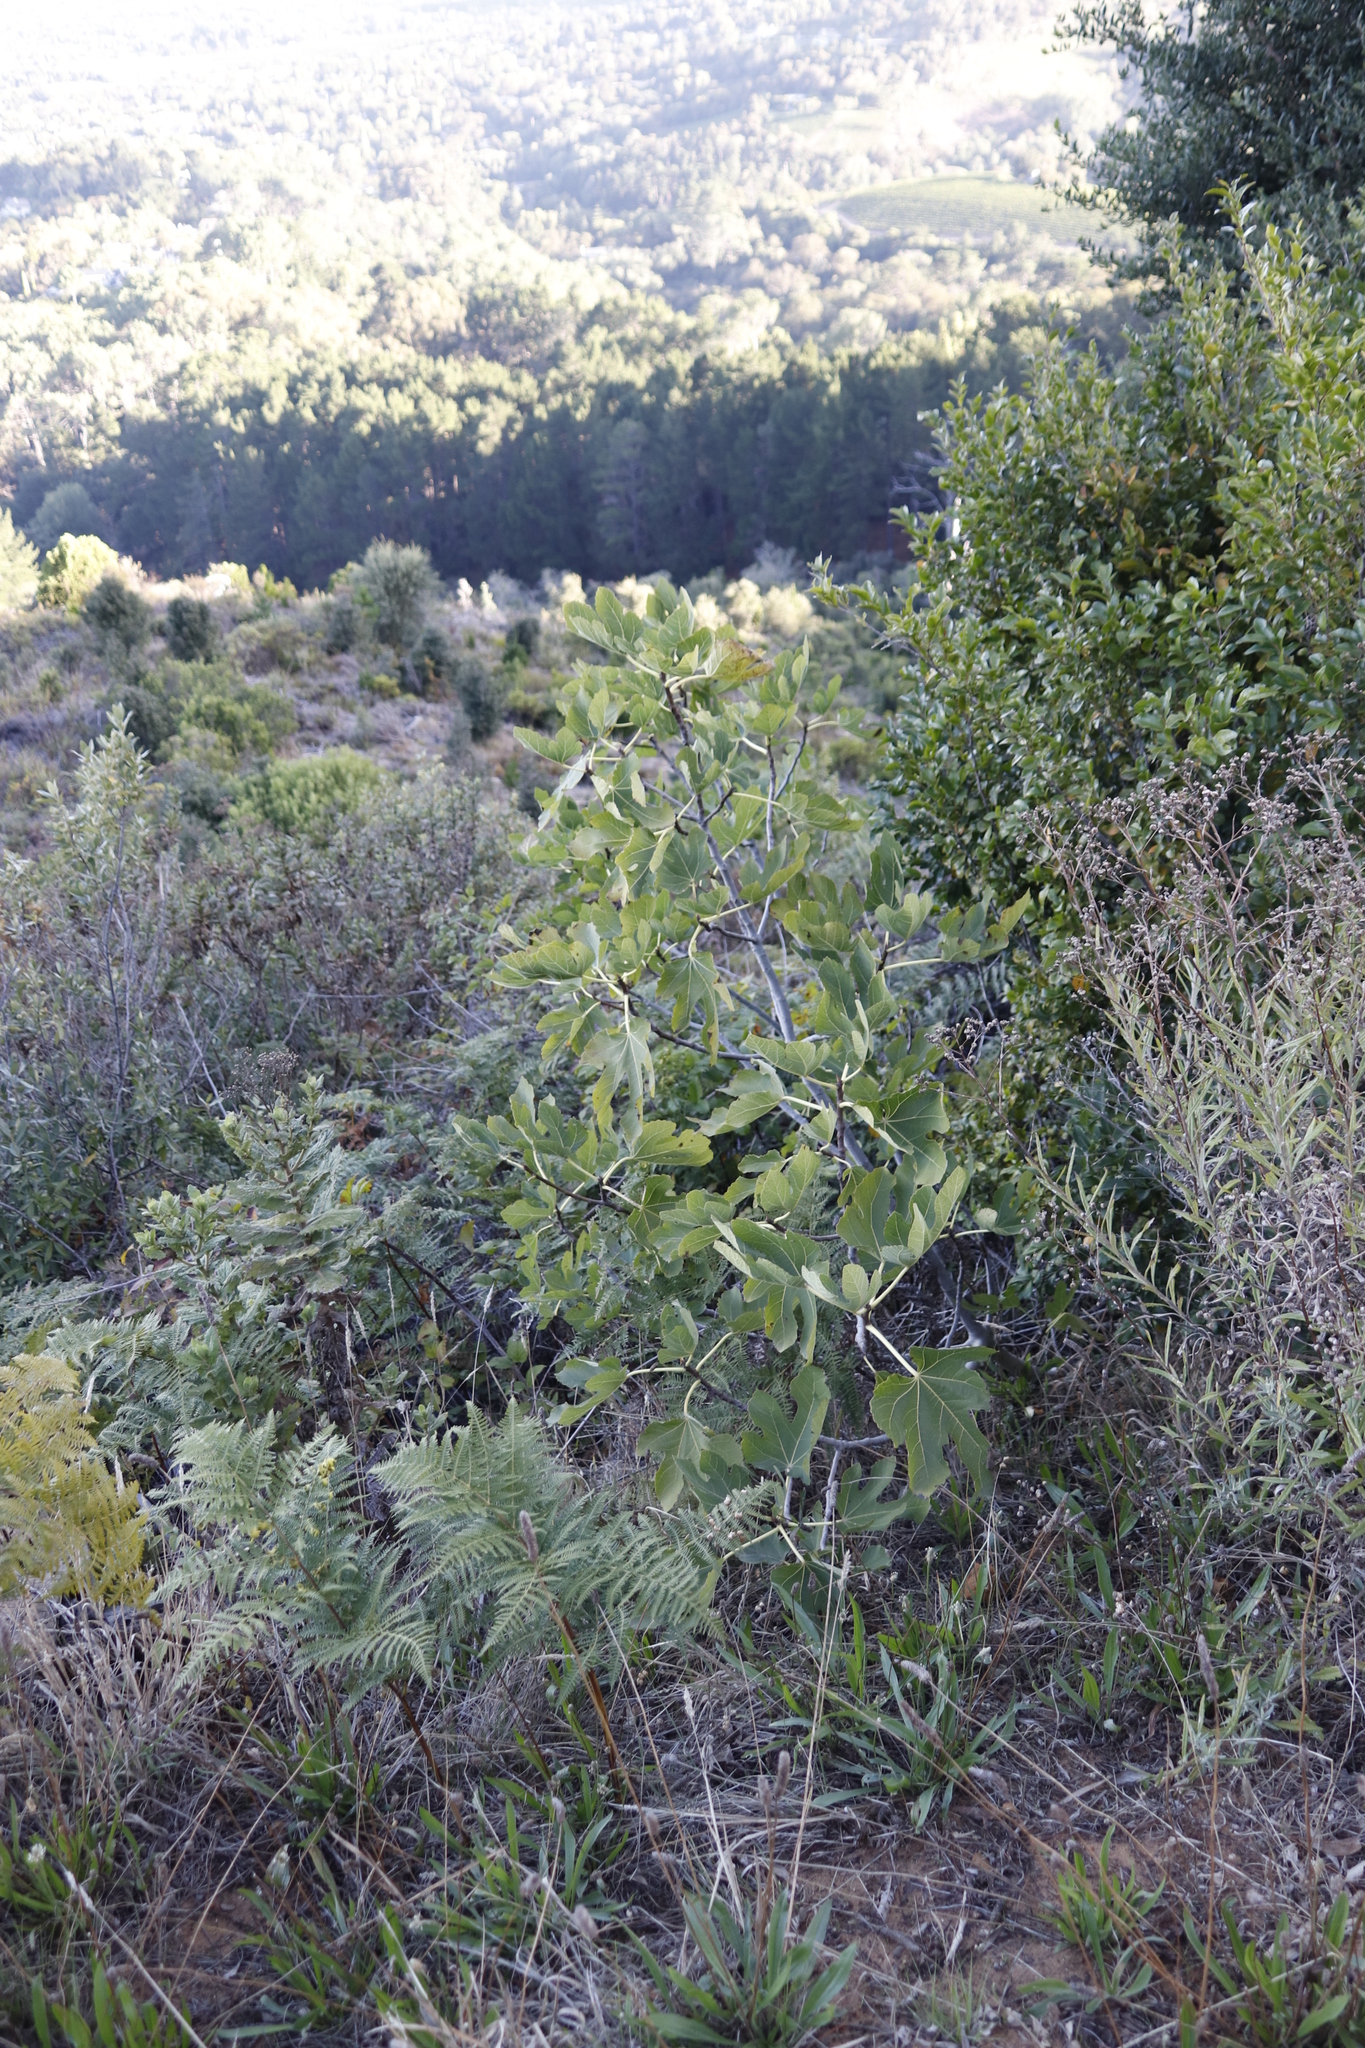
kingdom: Plantae
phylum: Tracheophyta
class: Magnoliopsida
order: Rosales
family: Moraceae
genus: Ficus
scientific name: Ficus carica
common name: Fig
